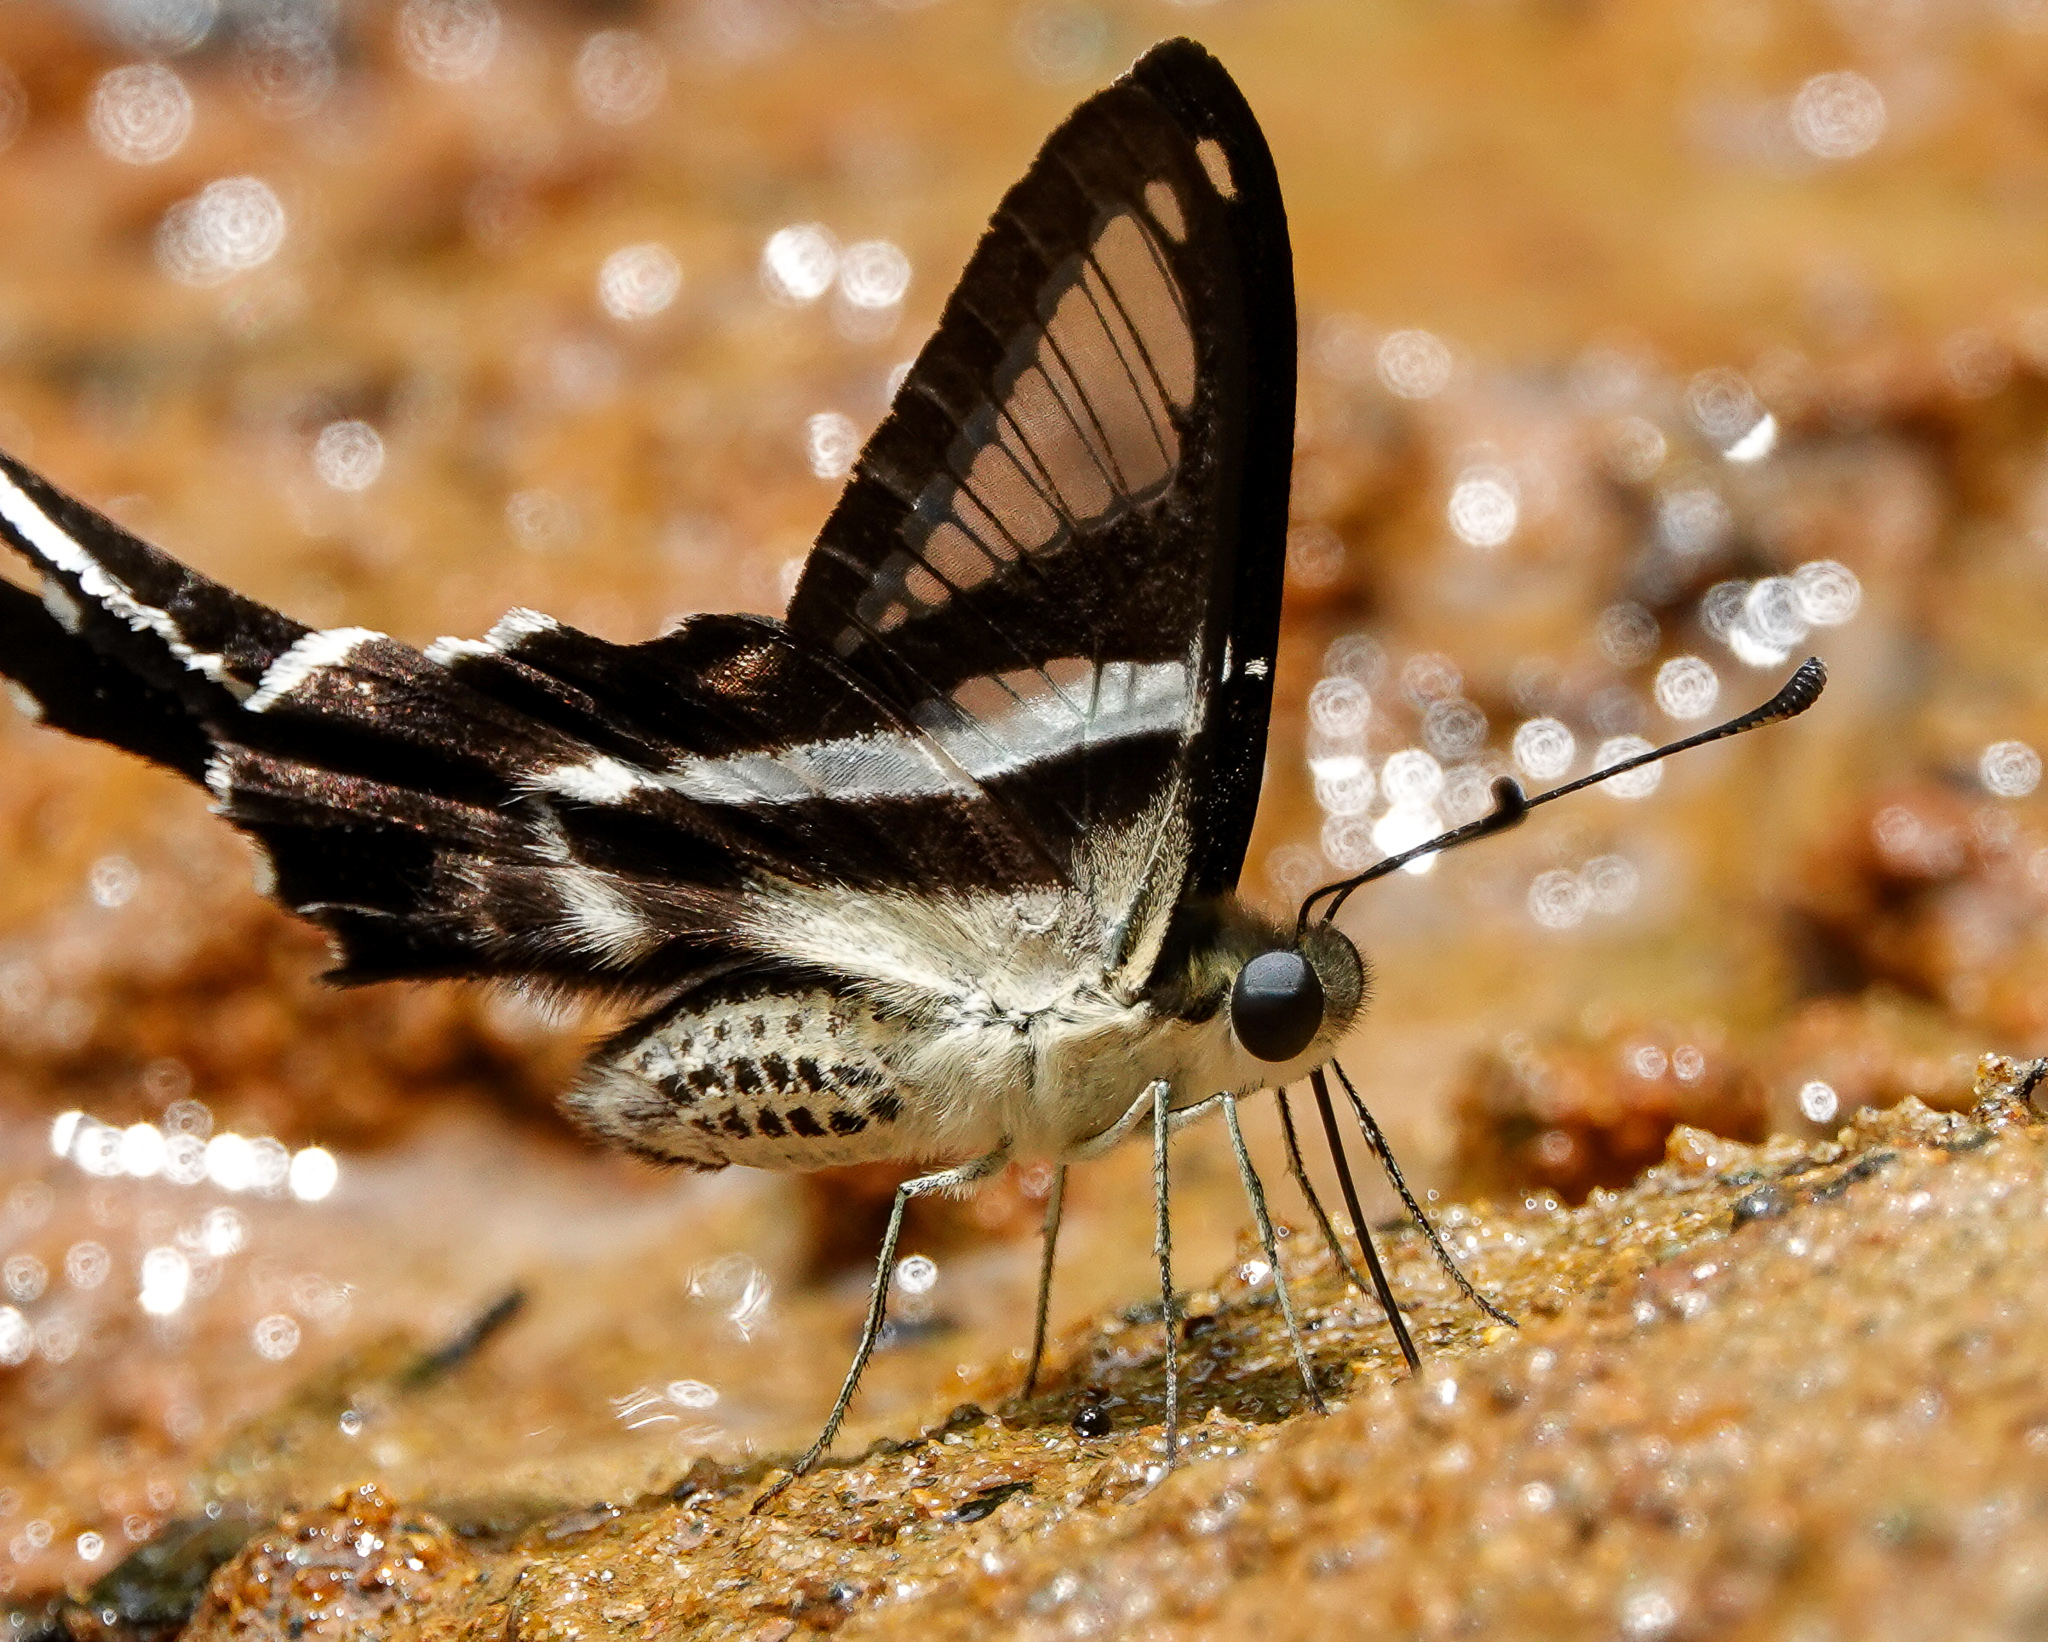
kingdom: Animalia
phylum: Arthropoda
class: Insecta
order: Lepidoptera
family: Papilionidae
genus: Lamproptera
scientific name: Lamproptera curius
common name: White dragontail
